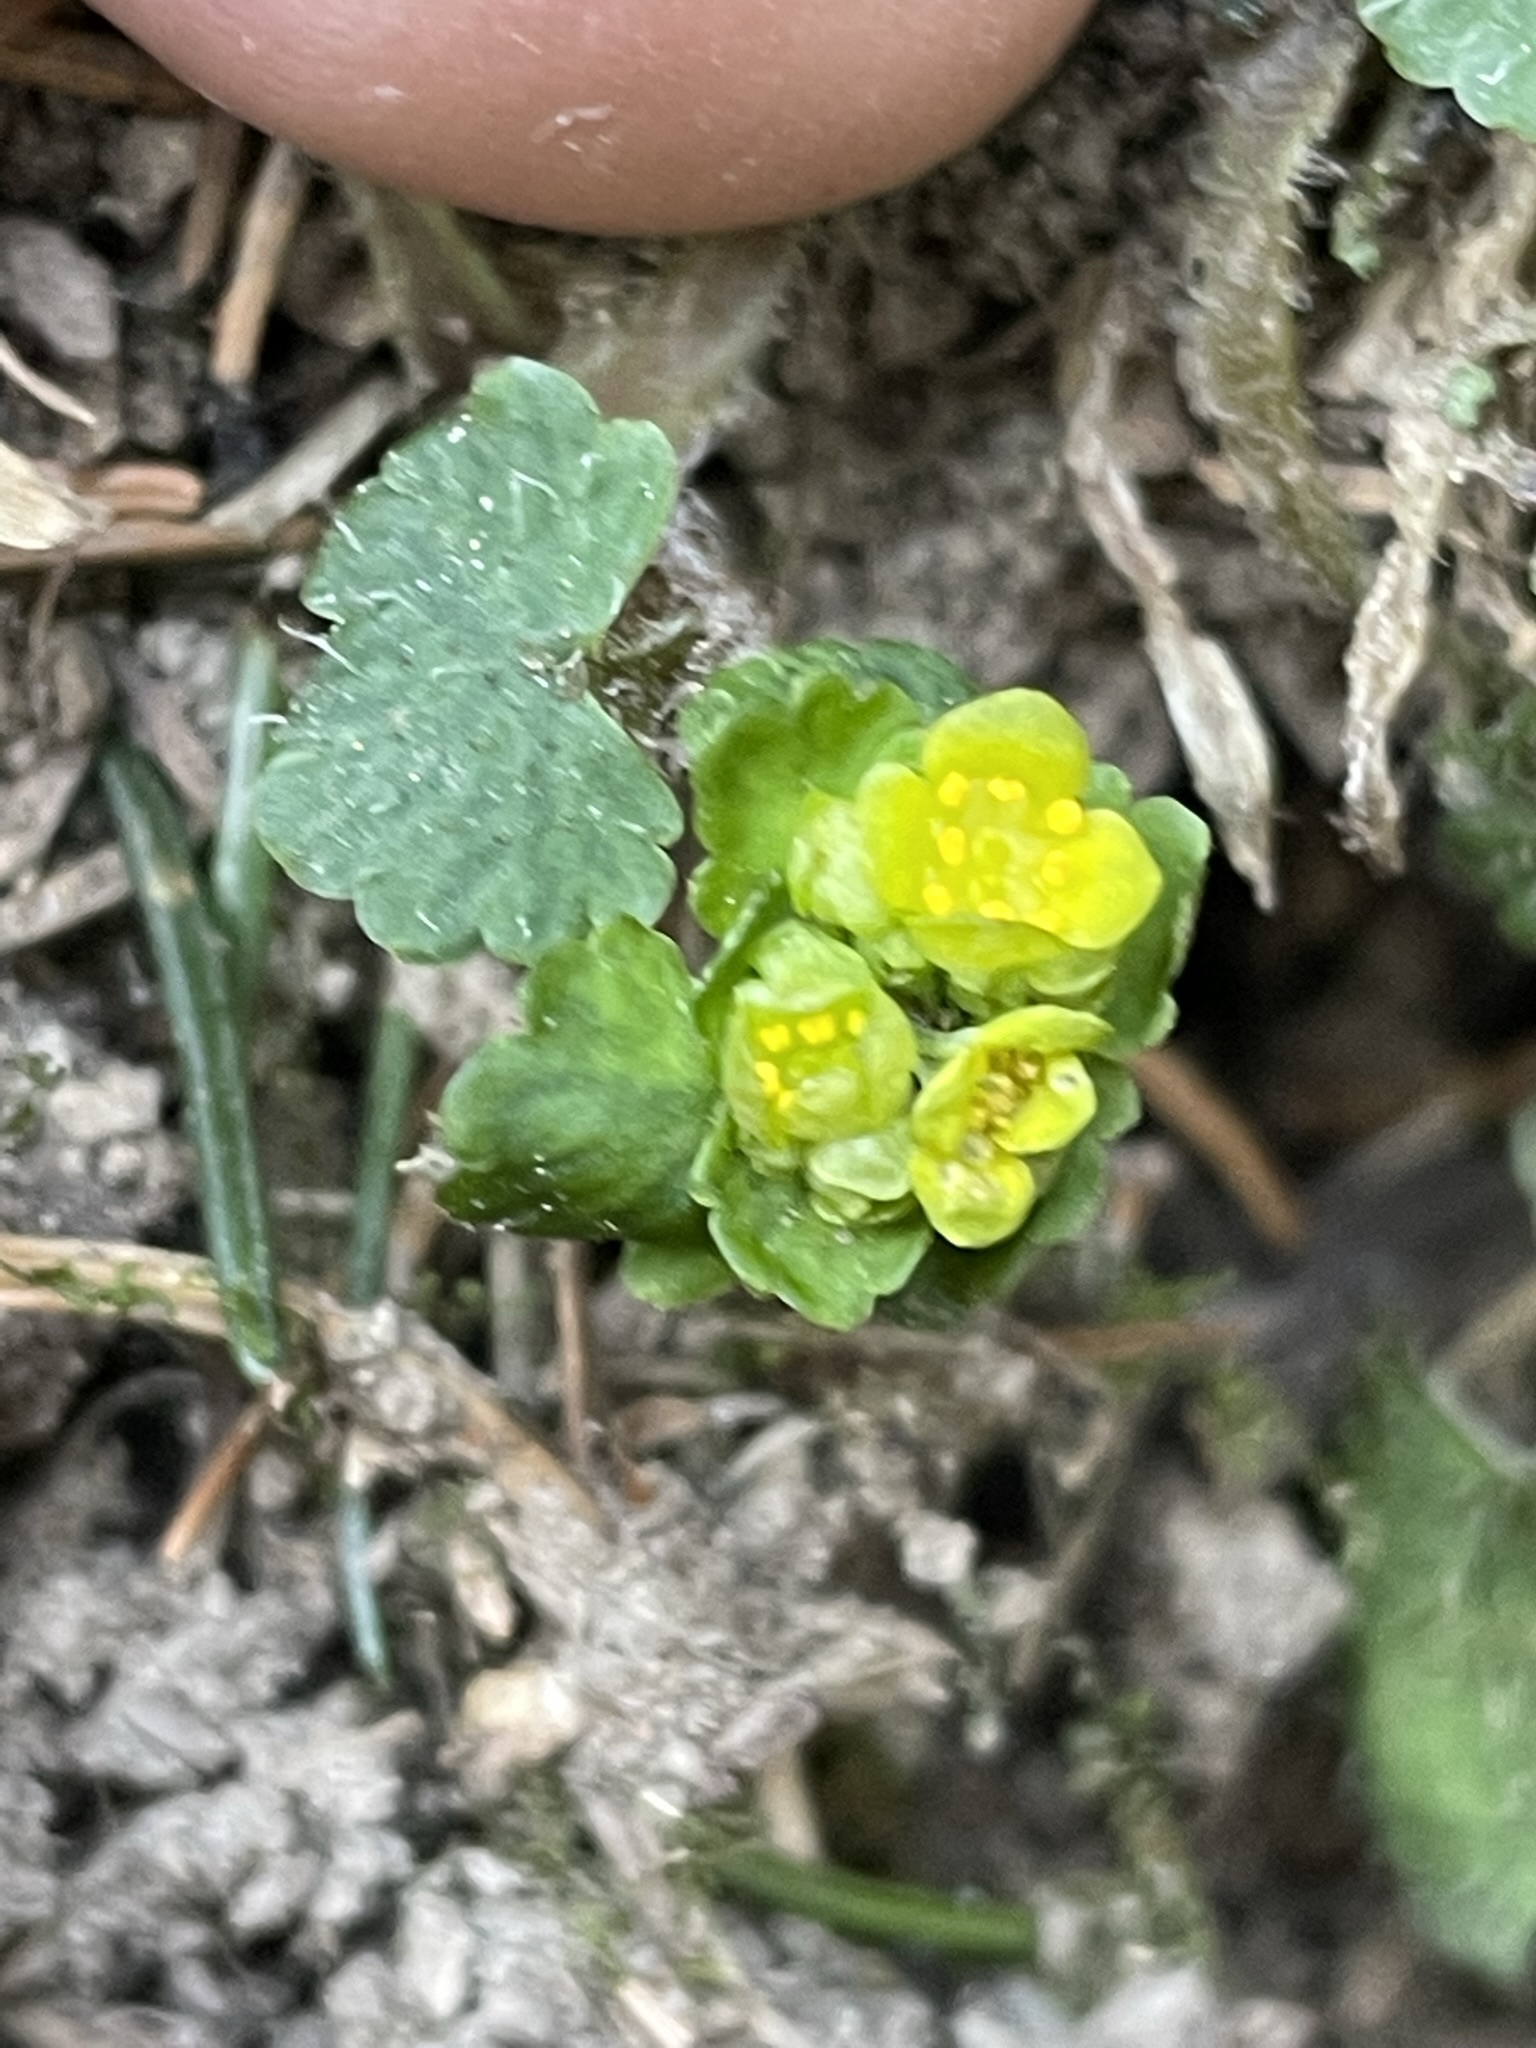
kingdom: Plantae
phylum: Tracheophyta
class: Magnoliopsida
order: Saxifragales
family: Saxifragaceae
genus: Chrysosplenium
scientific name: Chrysosplenium alternifolium
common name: Alternate-leaved golden-saxifrage
